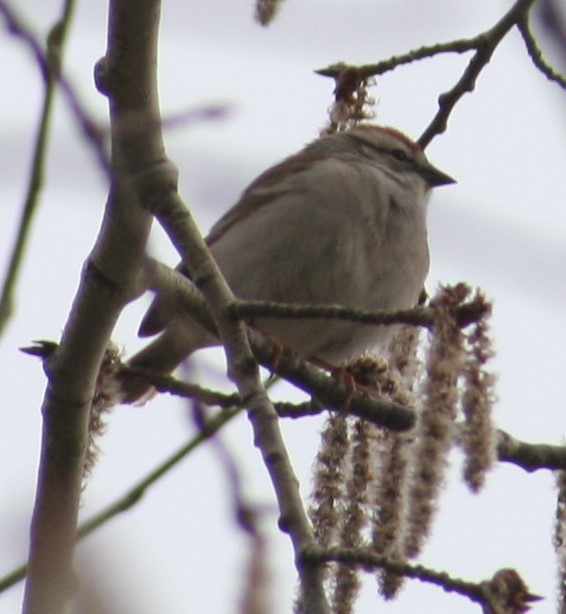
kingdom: Animalia
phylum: Chordata
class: Aves
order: Passeriformes
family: Passerellidae
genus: Spizella
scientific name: Spizella passerina
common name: Chipping sparrow
